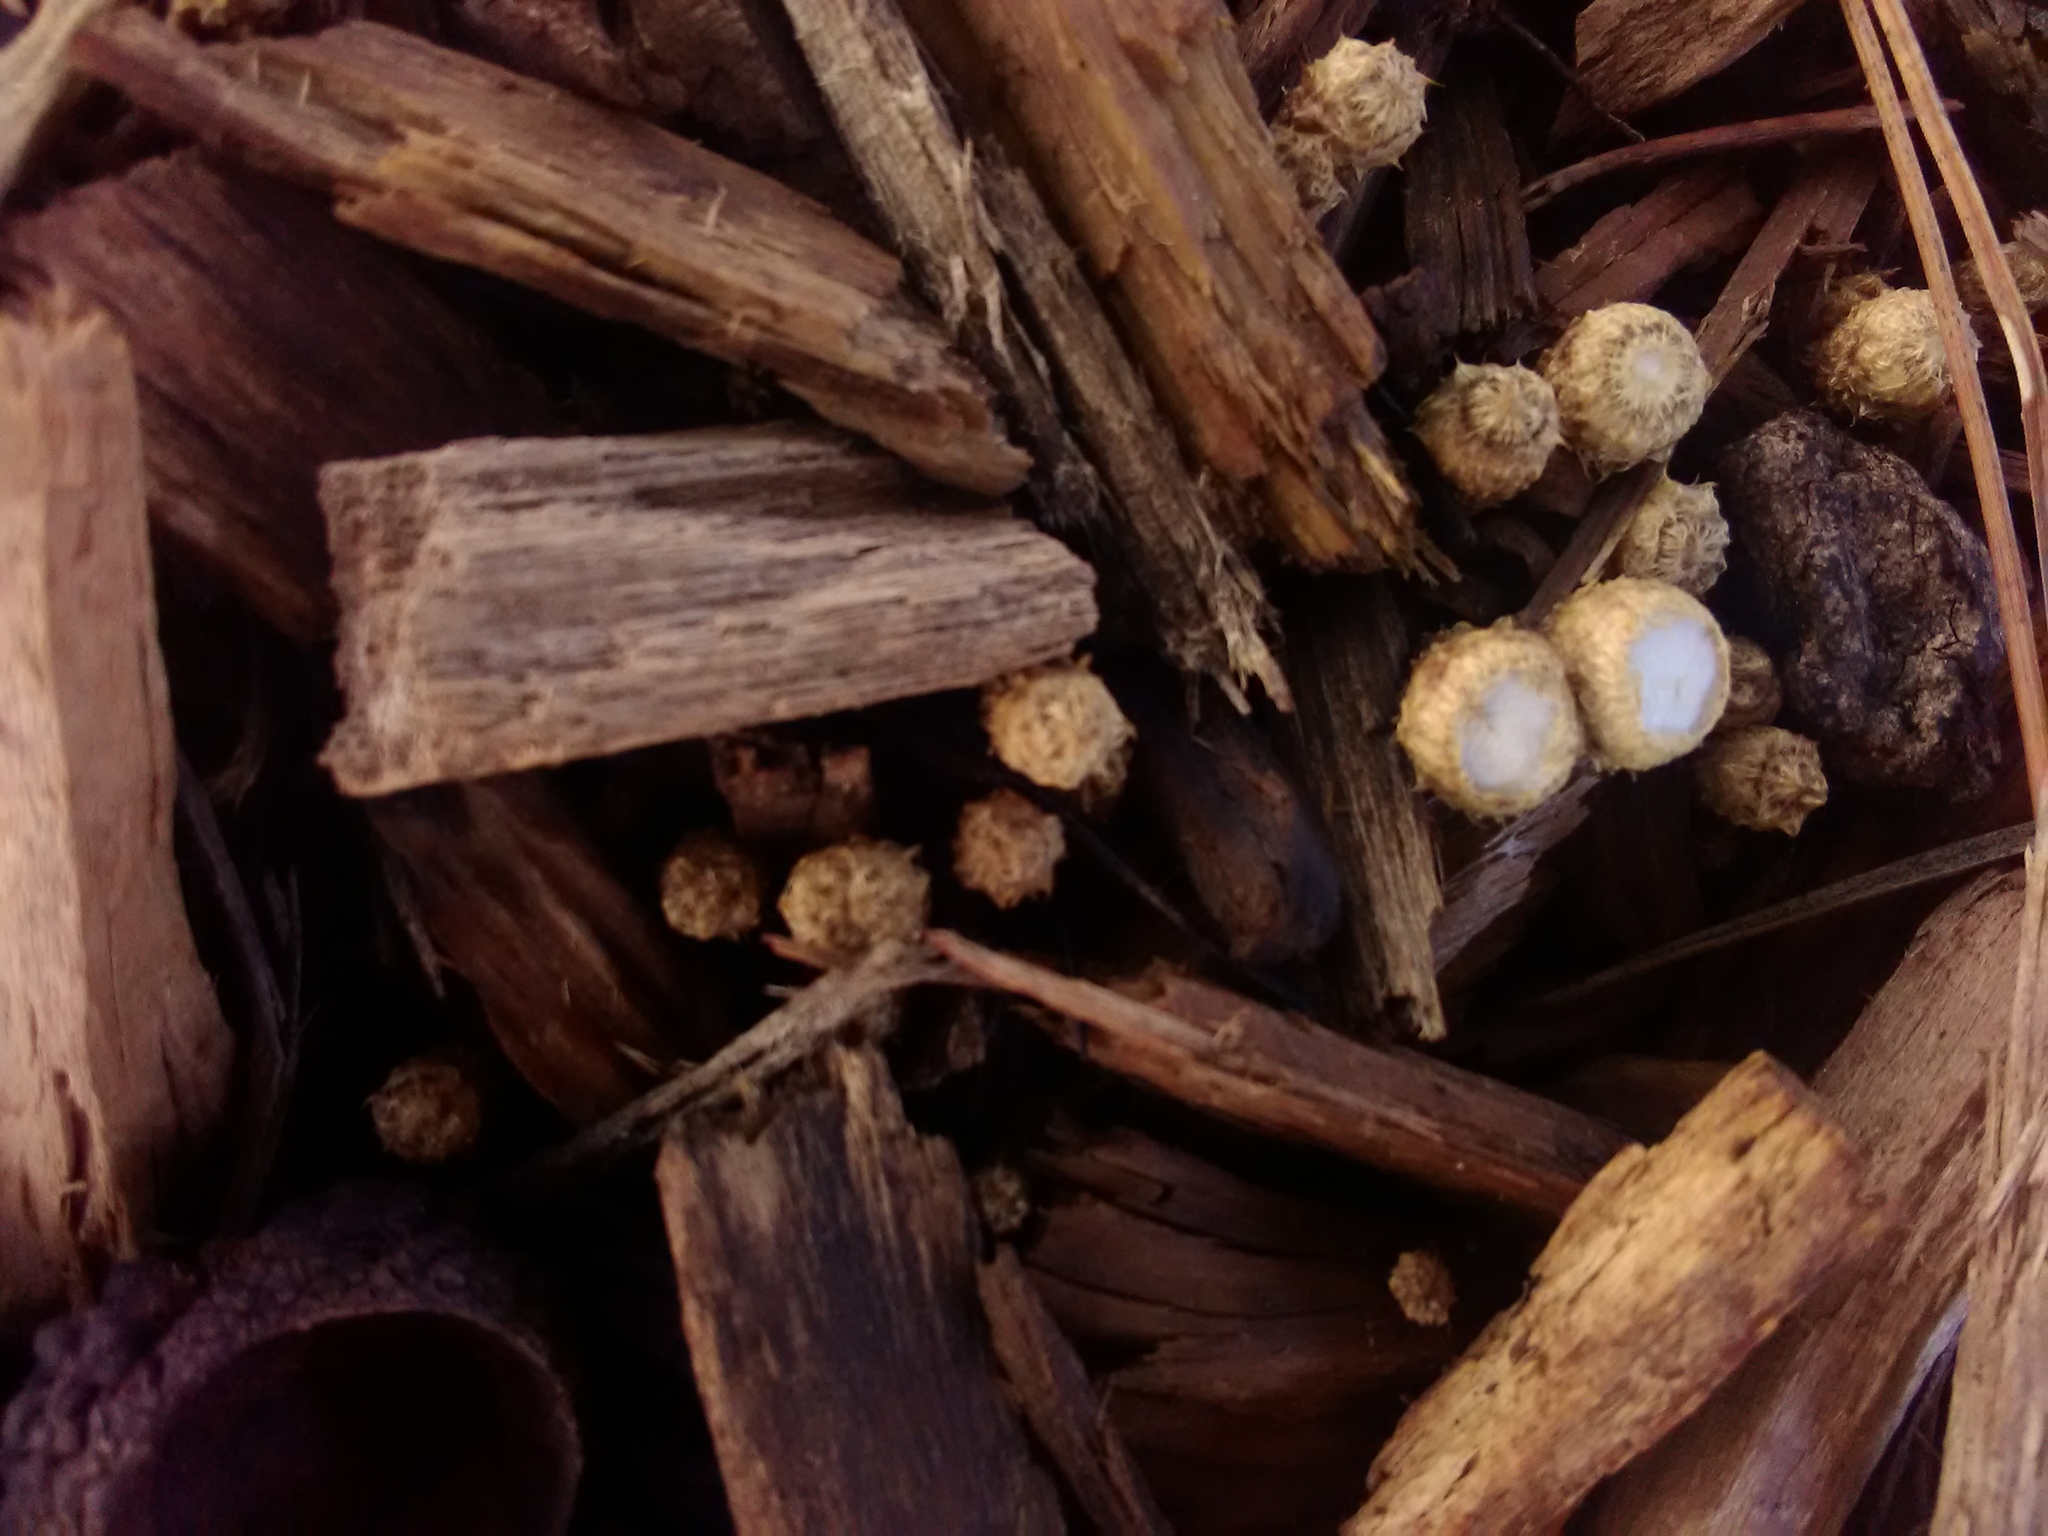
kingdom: Fungi
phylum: Basidiomycota
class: Agaricomycetes
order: Agaricales
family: Agaricaceae
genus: Cyathus
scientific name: Cyathus striatus
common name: Fluted bird's nest
